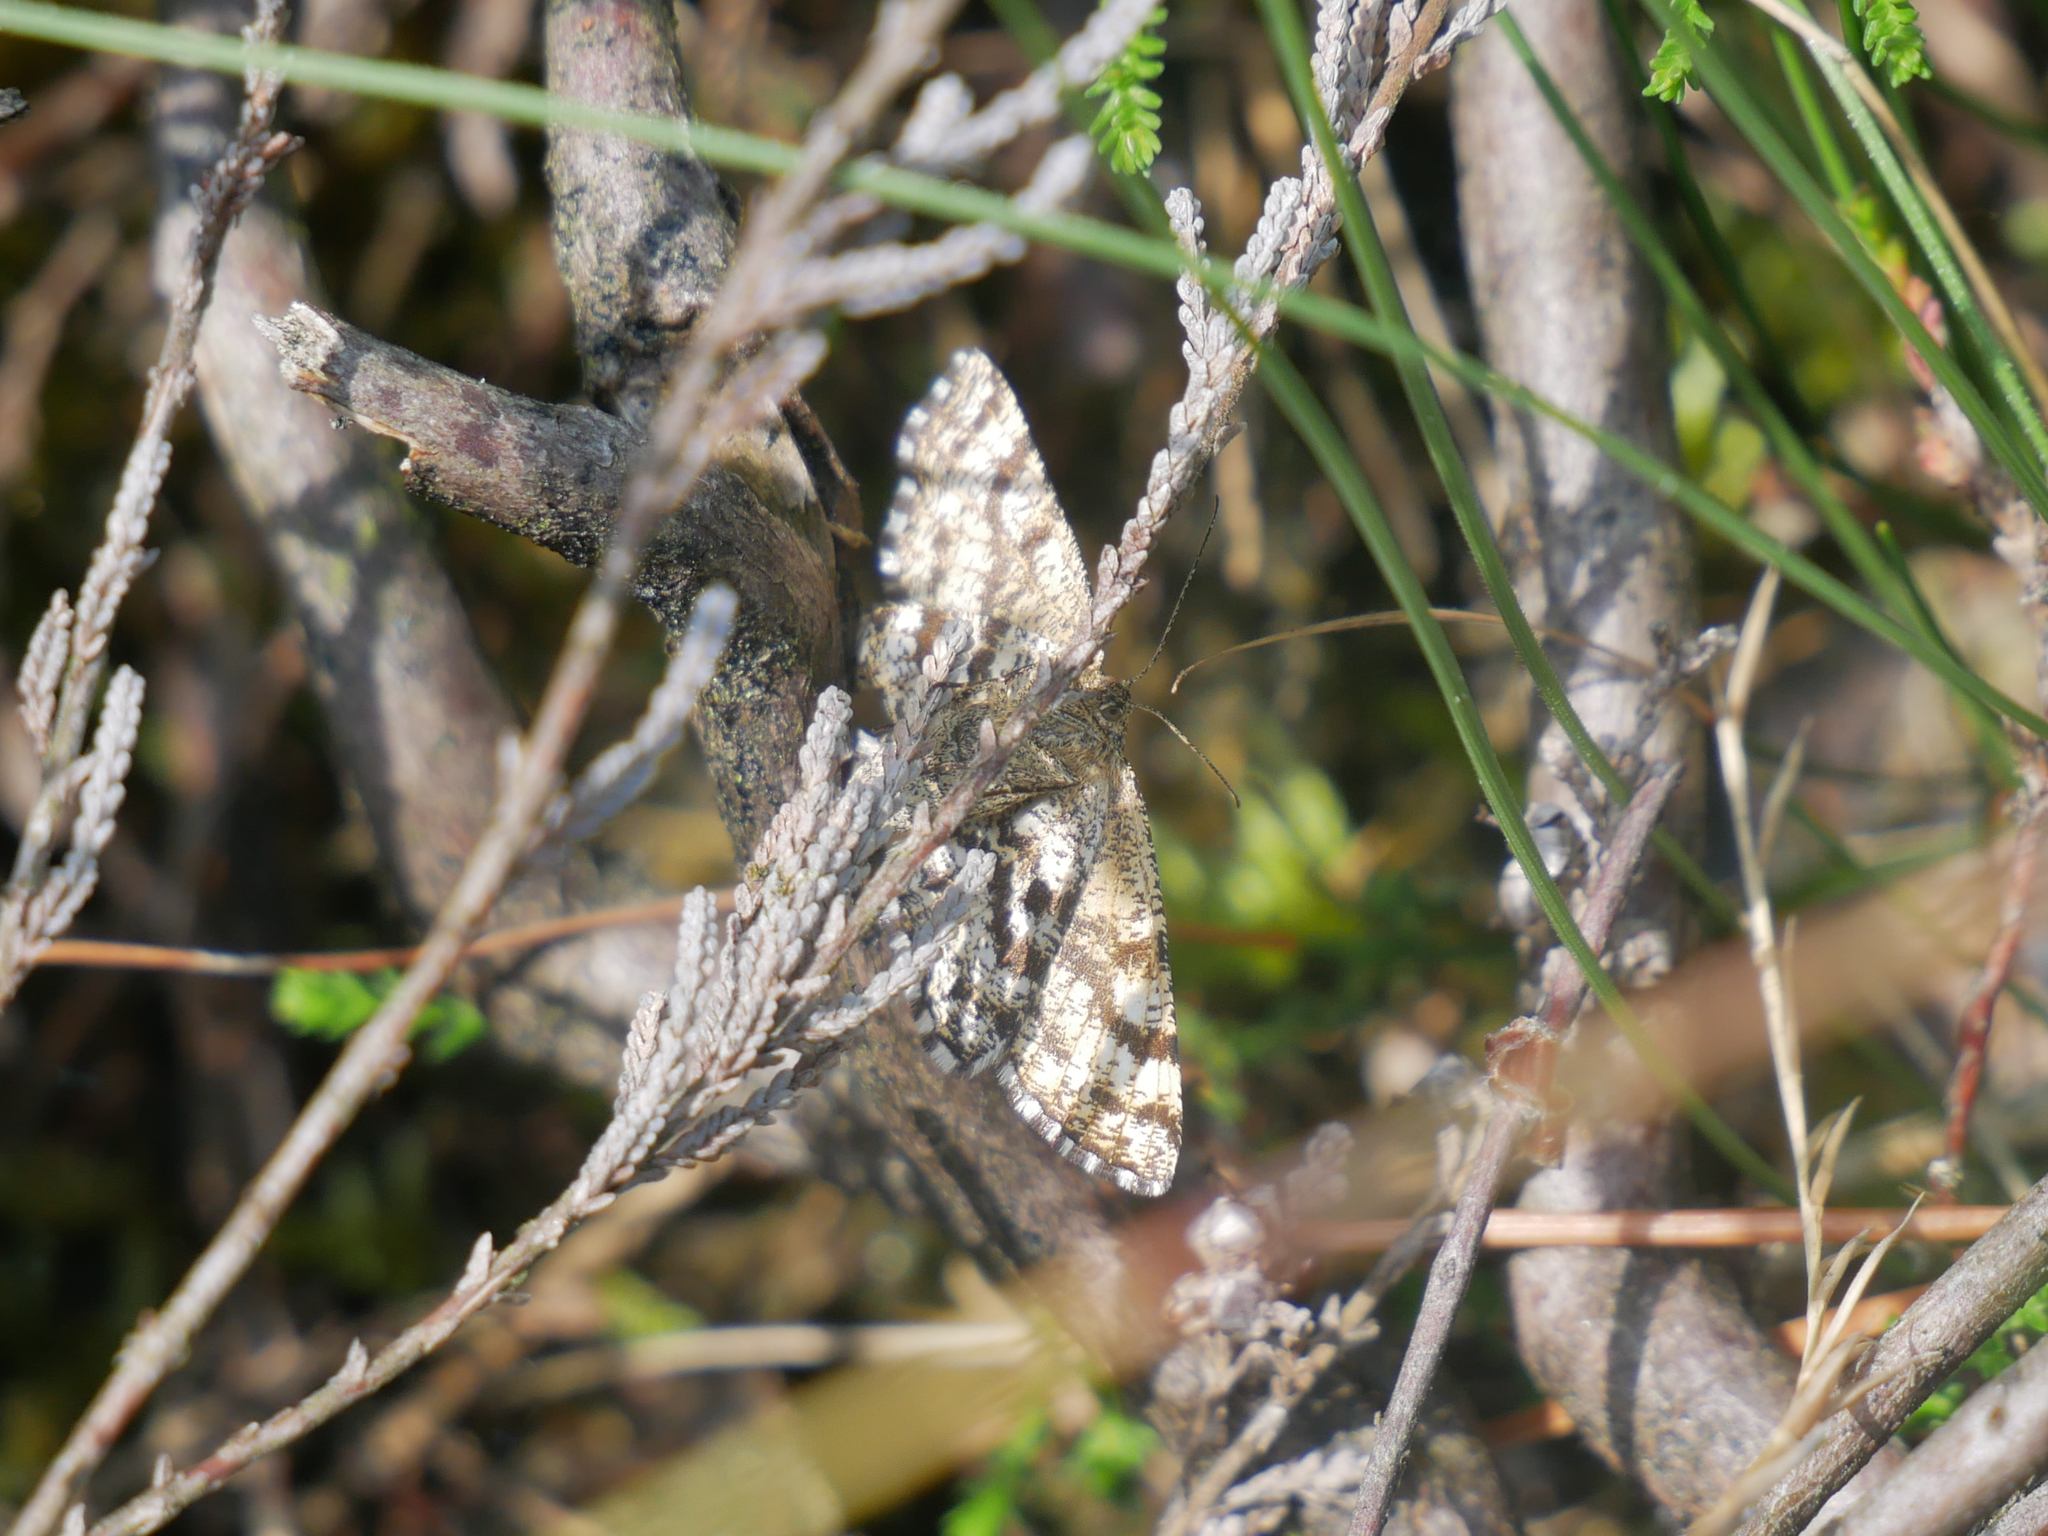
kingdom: Animalia
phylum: Arthropoda
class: Insecta
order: Lepidoptera
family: Geometridae
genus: Ematurga
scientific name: Ematurga atomaria
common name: Common heath
